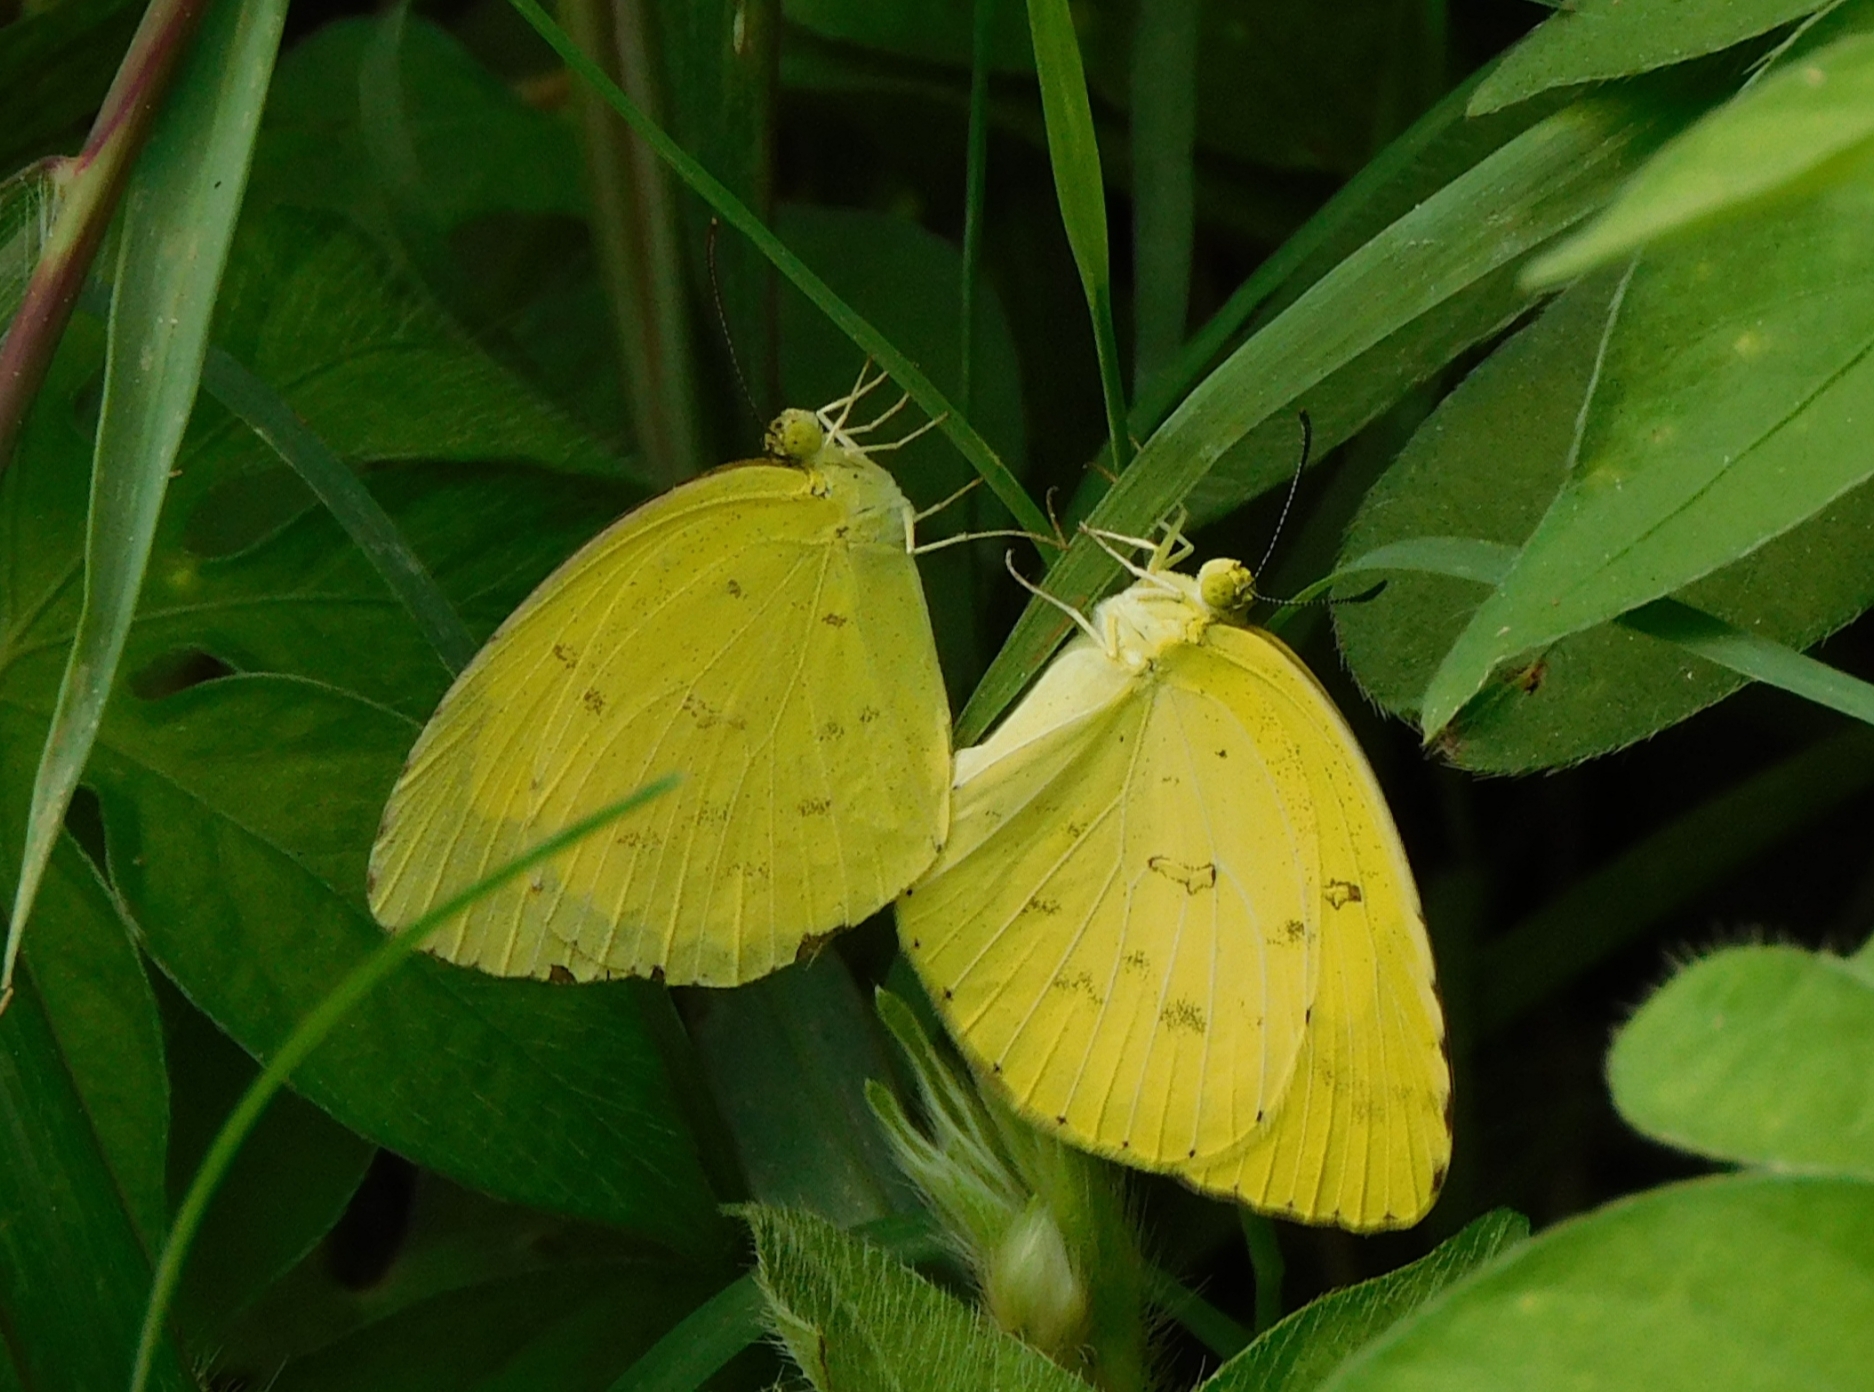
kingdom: Animalia
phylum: Arthropoda
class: Insecta
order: Lepidoptera
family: Pieridae
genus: Eurema
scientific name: Eurema hecabe
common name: Pale grass yellow
